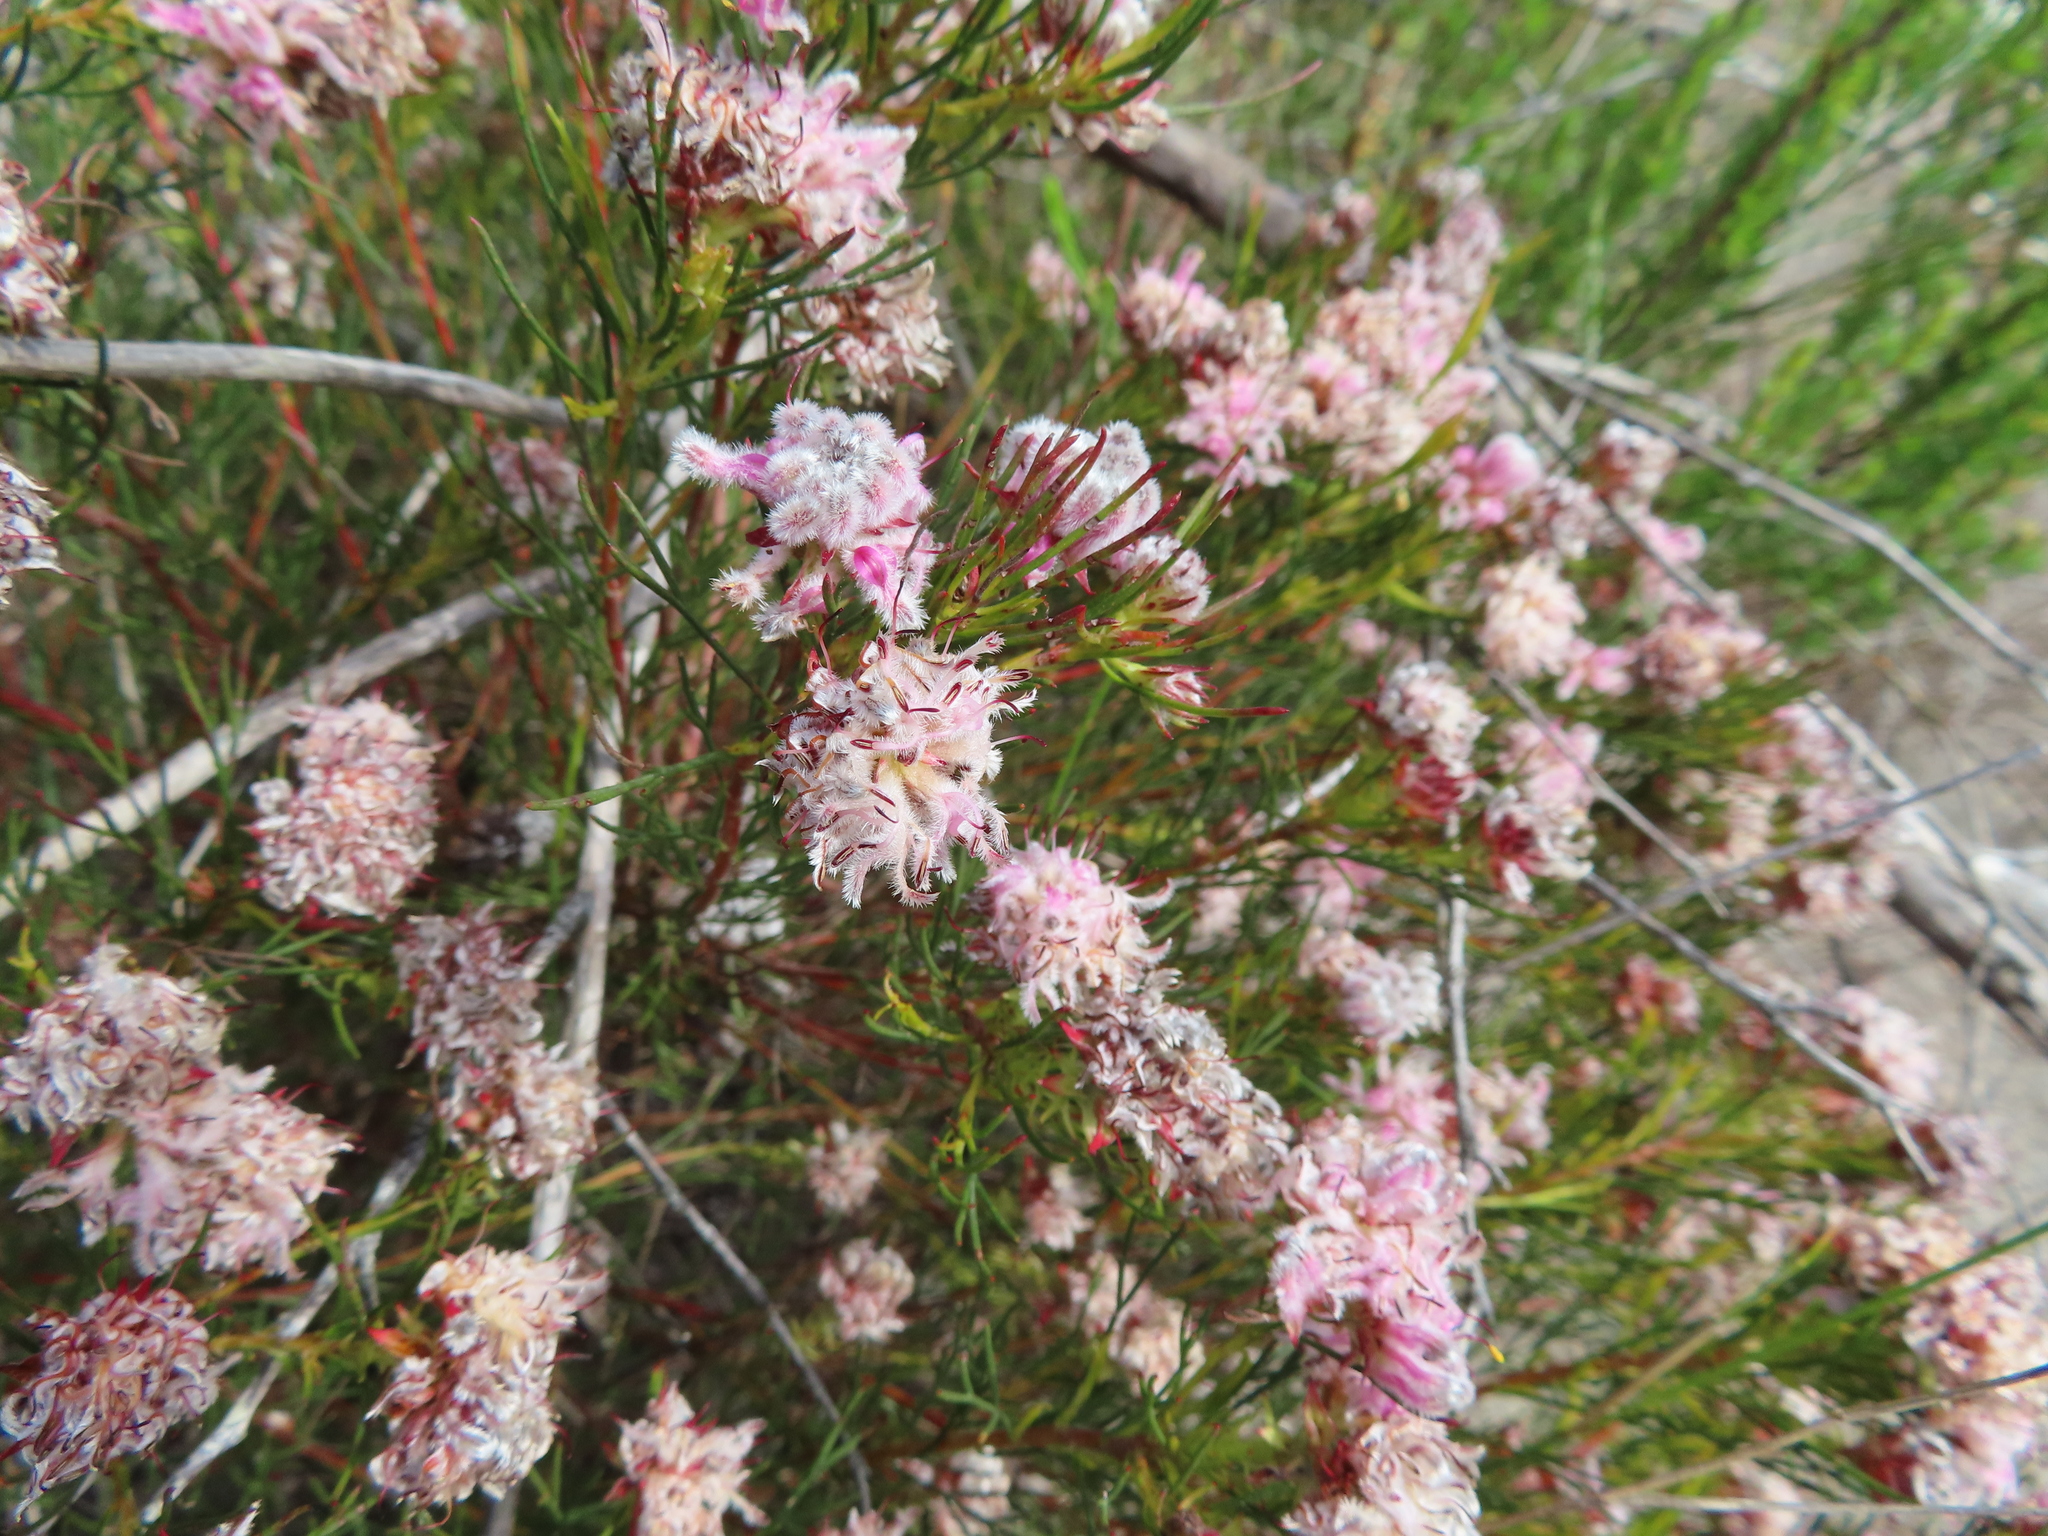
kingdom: Plantae
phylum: Tracheophyta
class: Magnoliopsida
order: Proteales
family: Proteaceae
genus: Serruria
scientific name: Serruria nervosa
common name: Fluted spiderhead
